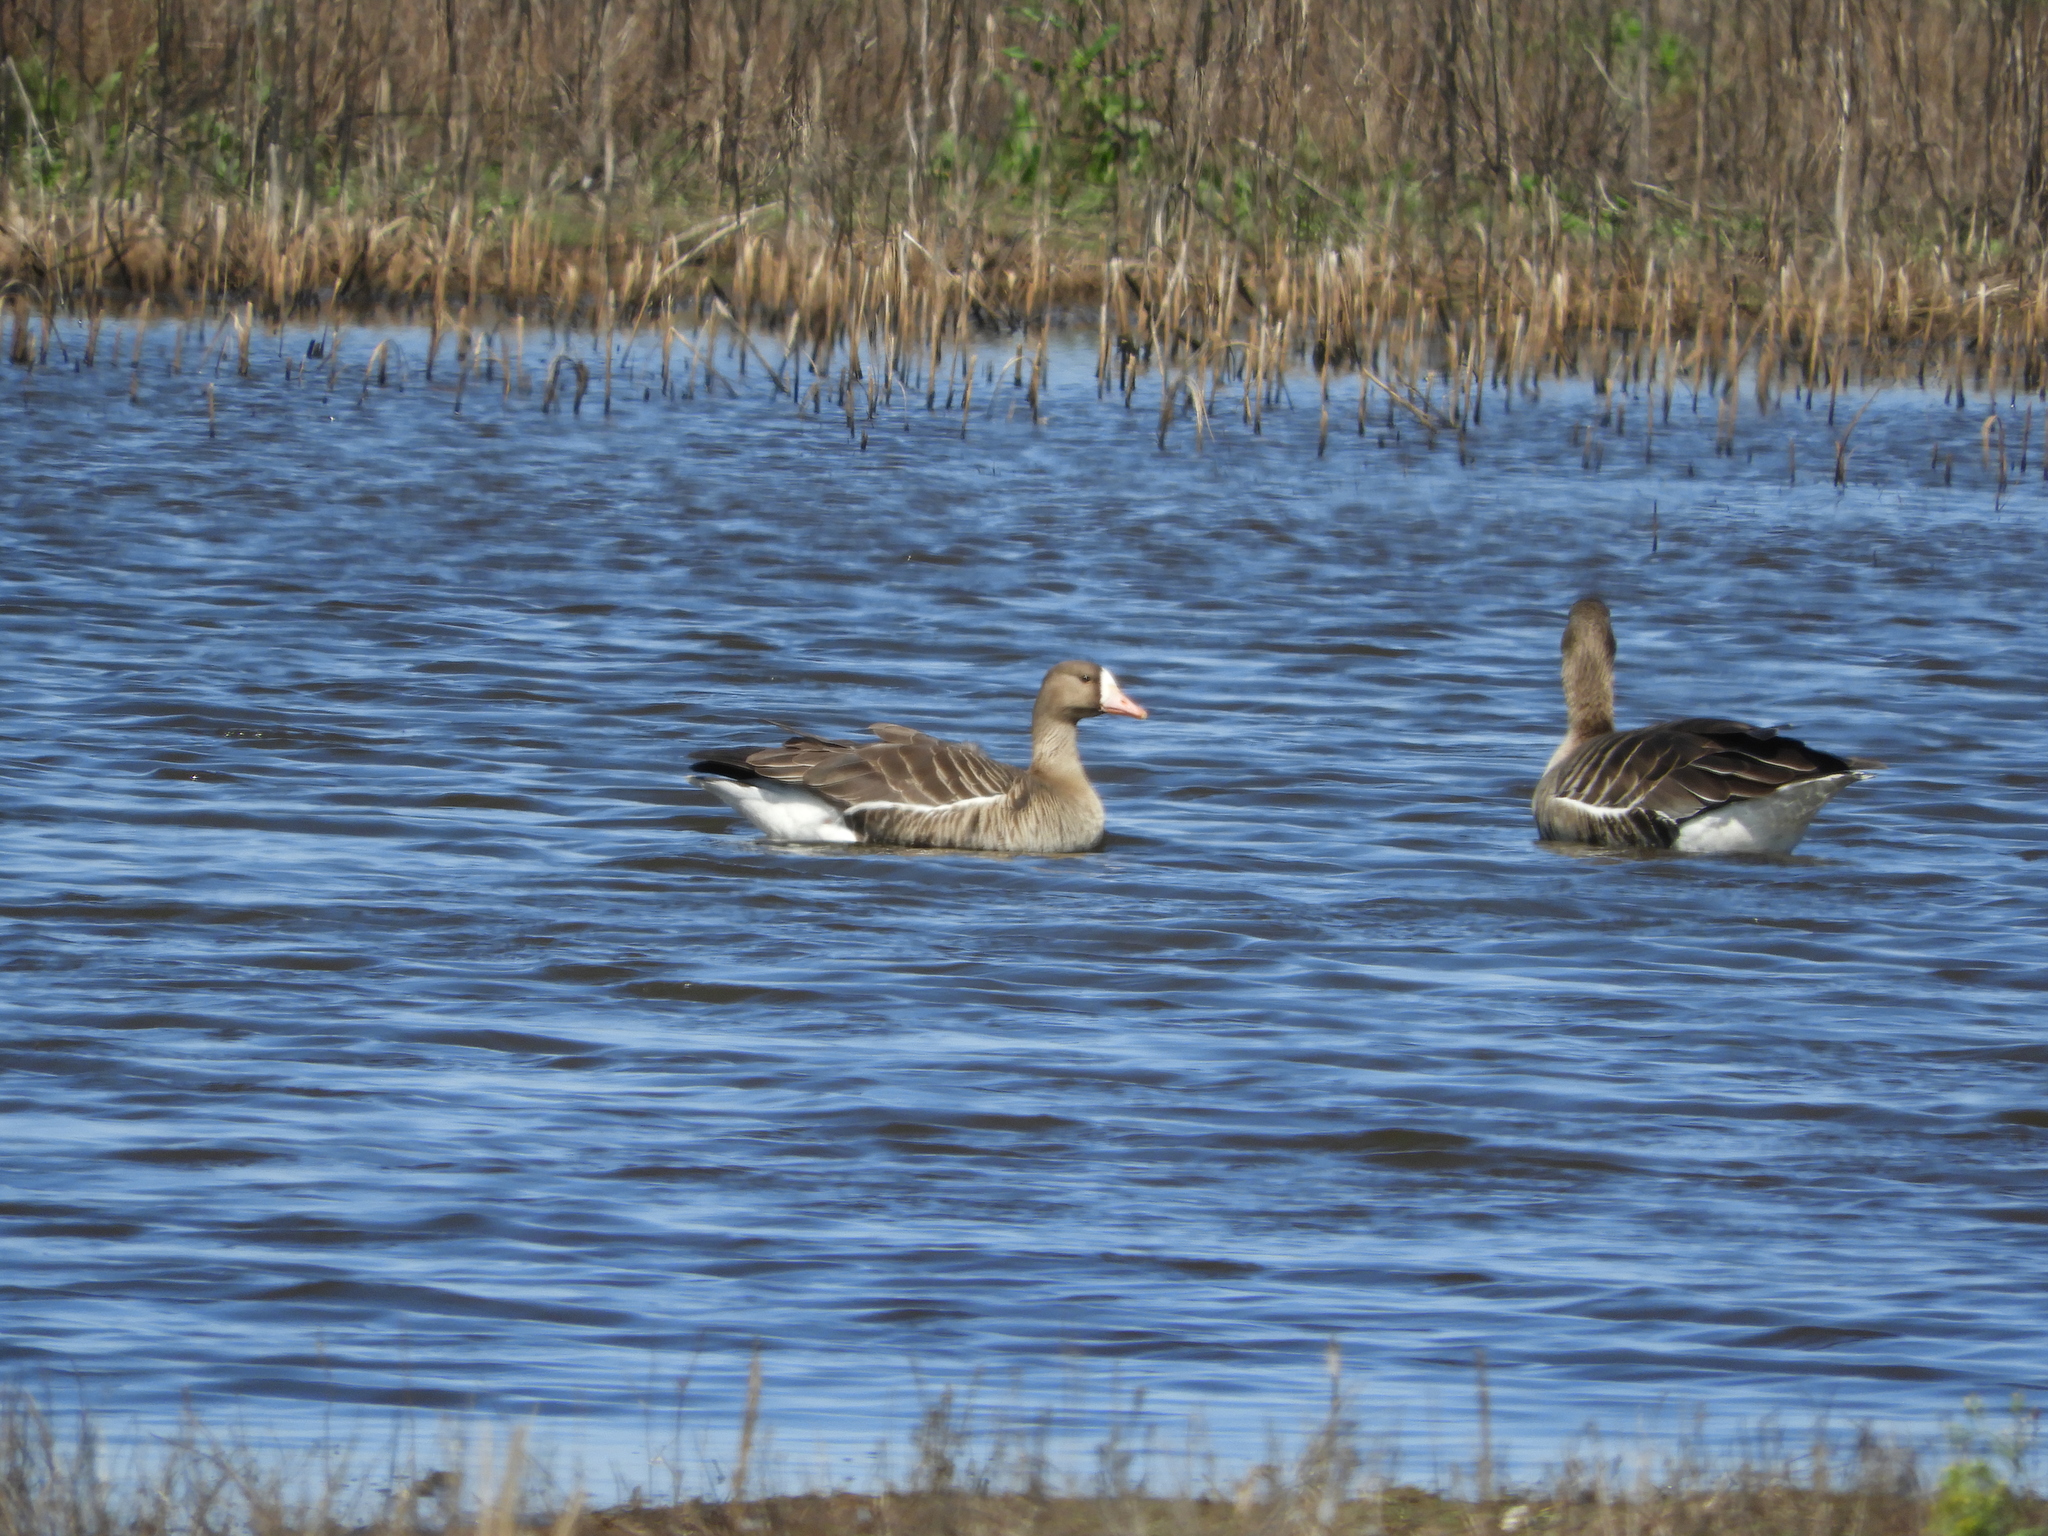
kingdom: Animalia
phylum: Chordata
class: Aves
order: Anseriformes
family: Anatidae
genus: Anser
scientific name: Anser albifrons
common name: Greater white-fronted goose
